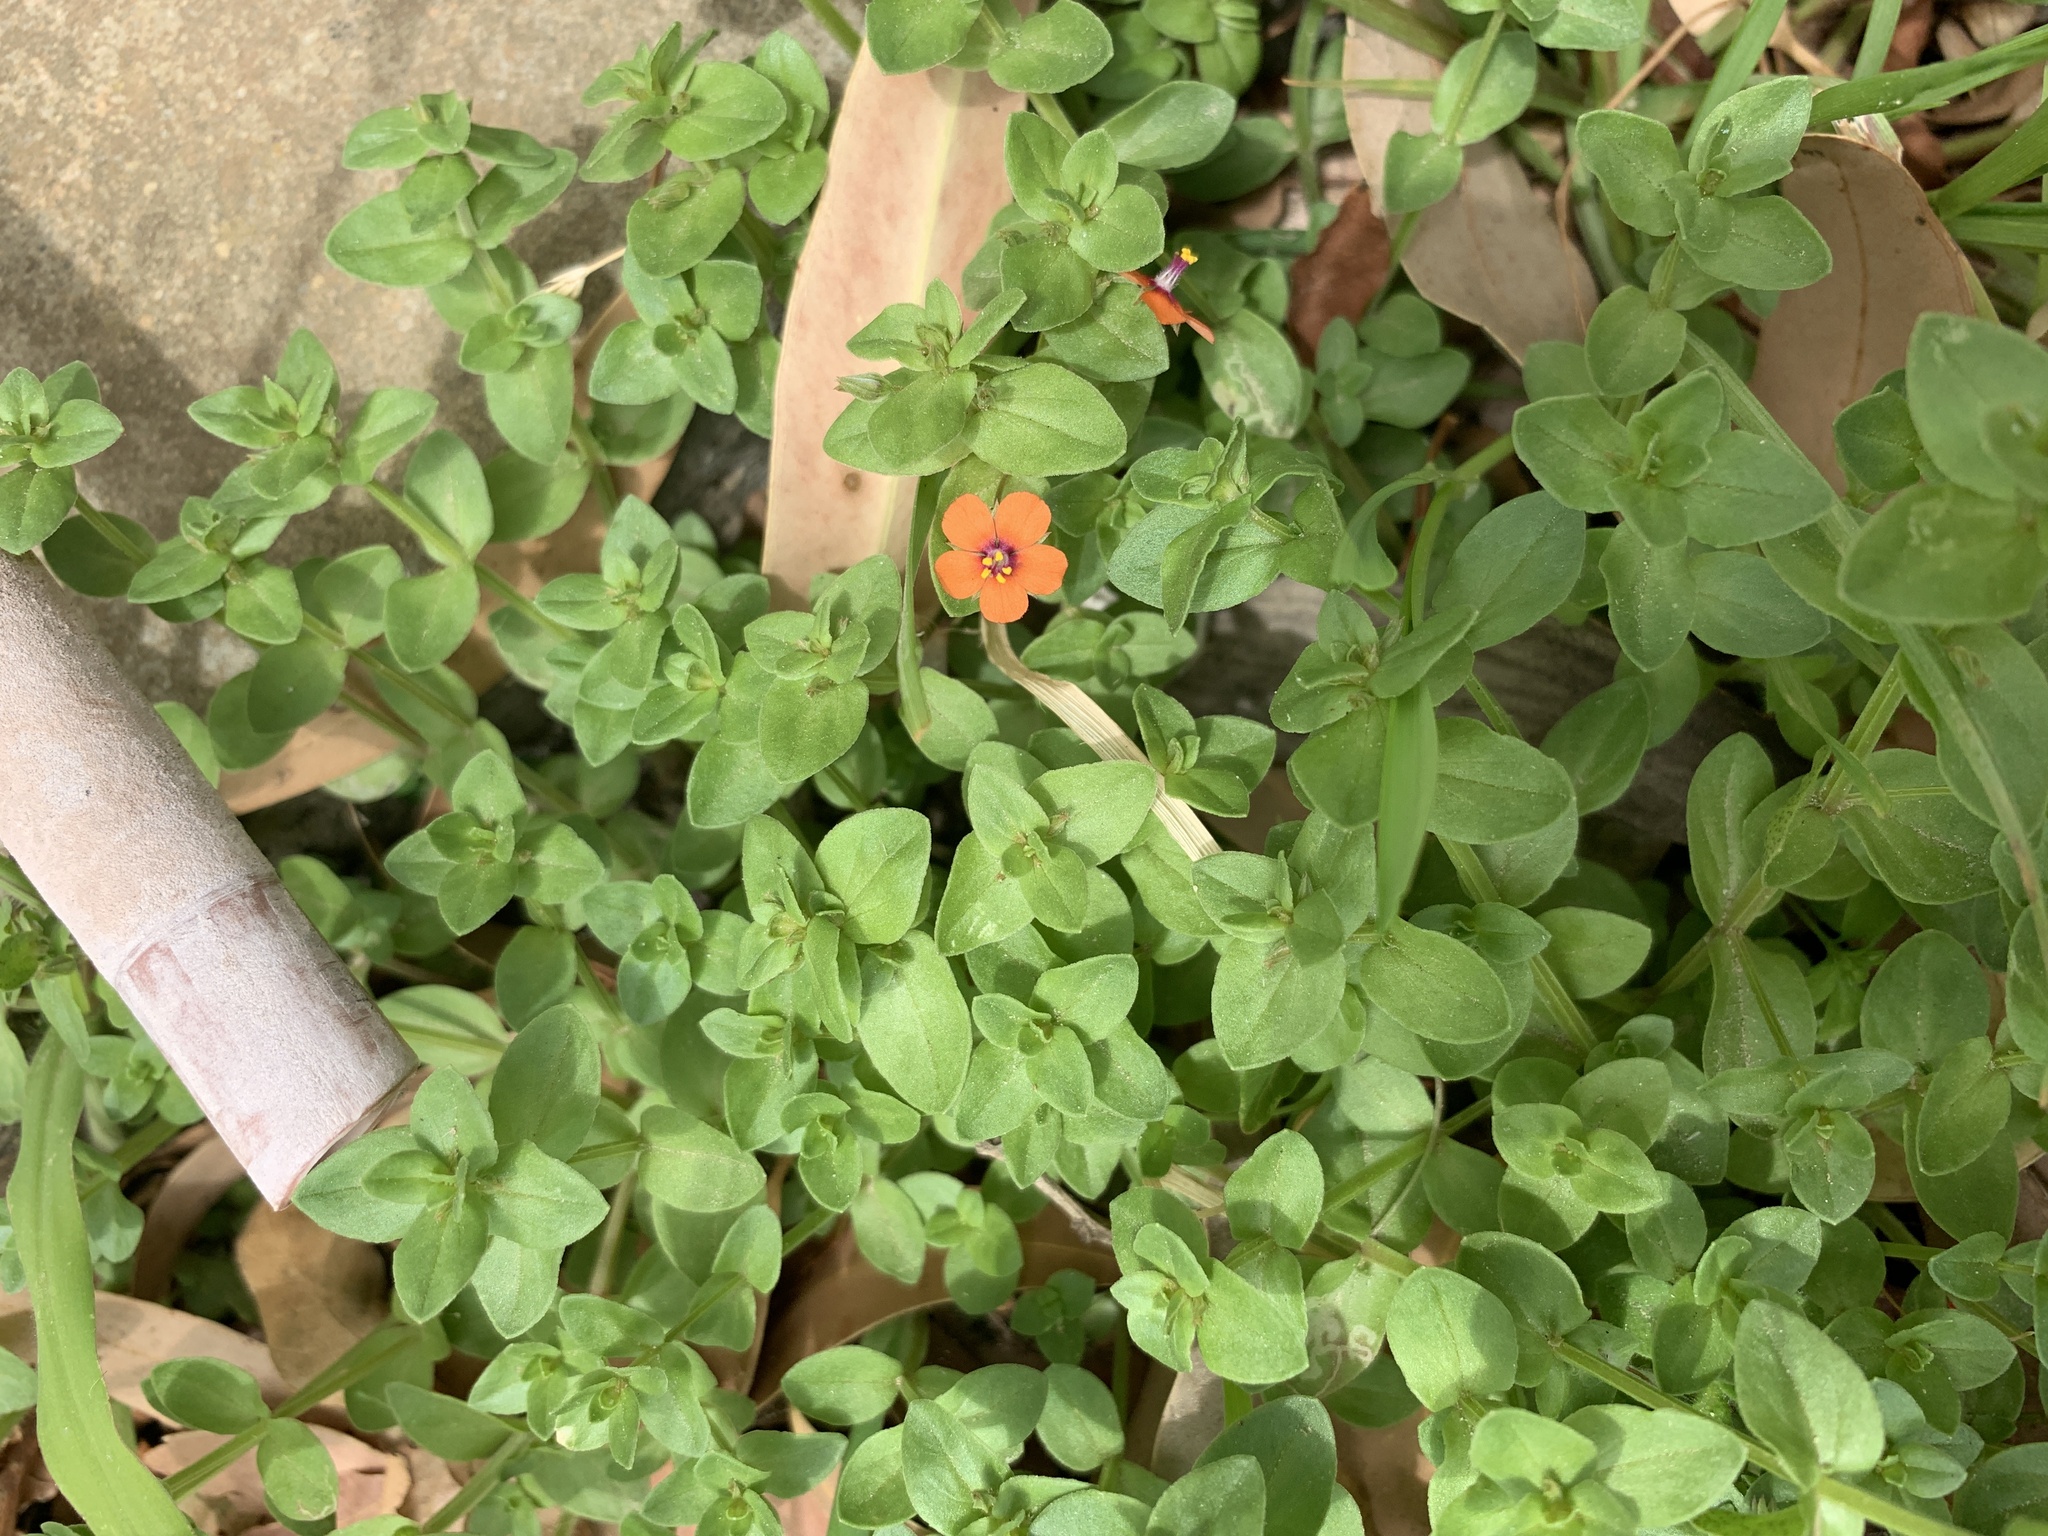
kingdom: Plantae
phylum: Tracheophyta
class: Magnoliopsida
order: Ericales
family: Primulaceae
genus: Lysimachia
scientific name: Lysimachia arvensis
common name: Scarlet pimpernel
